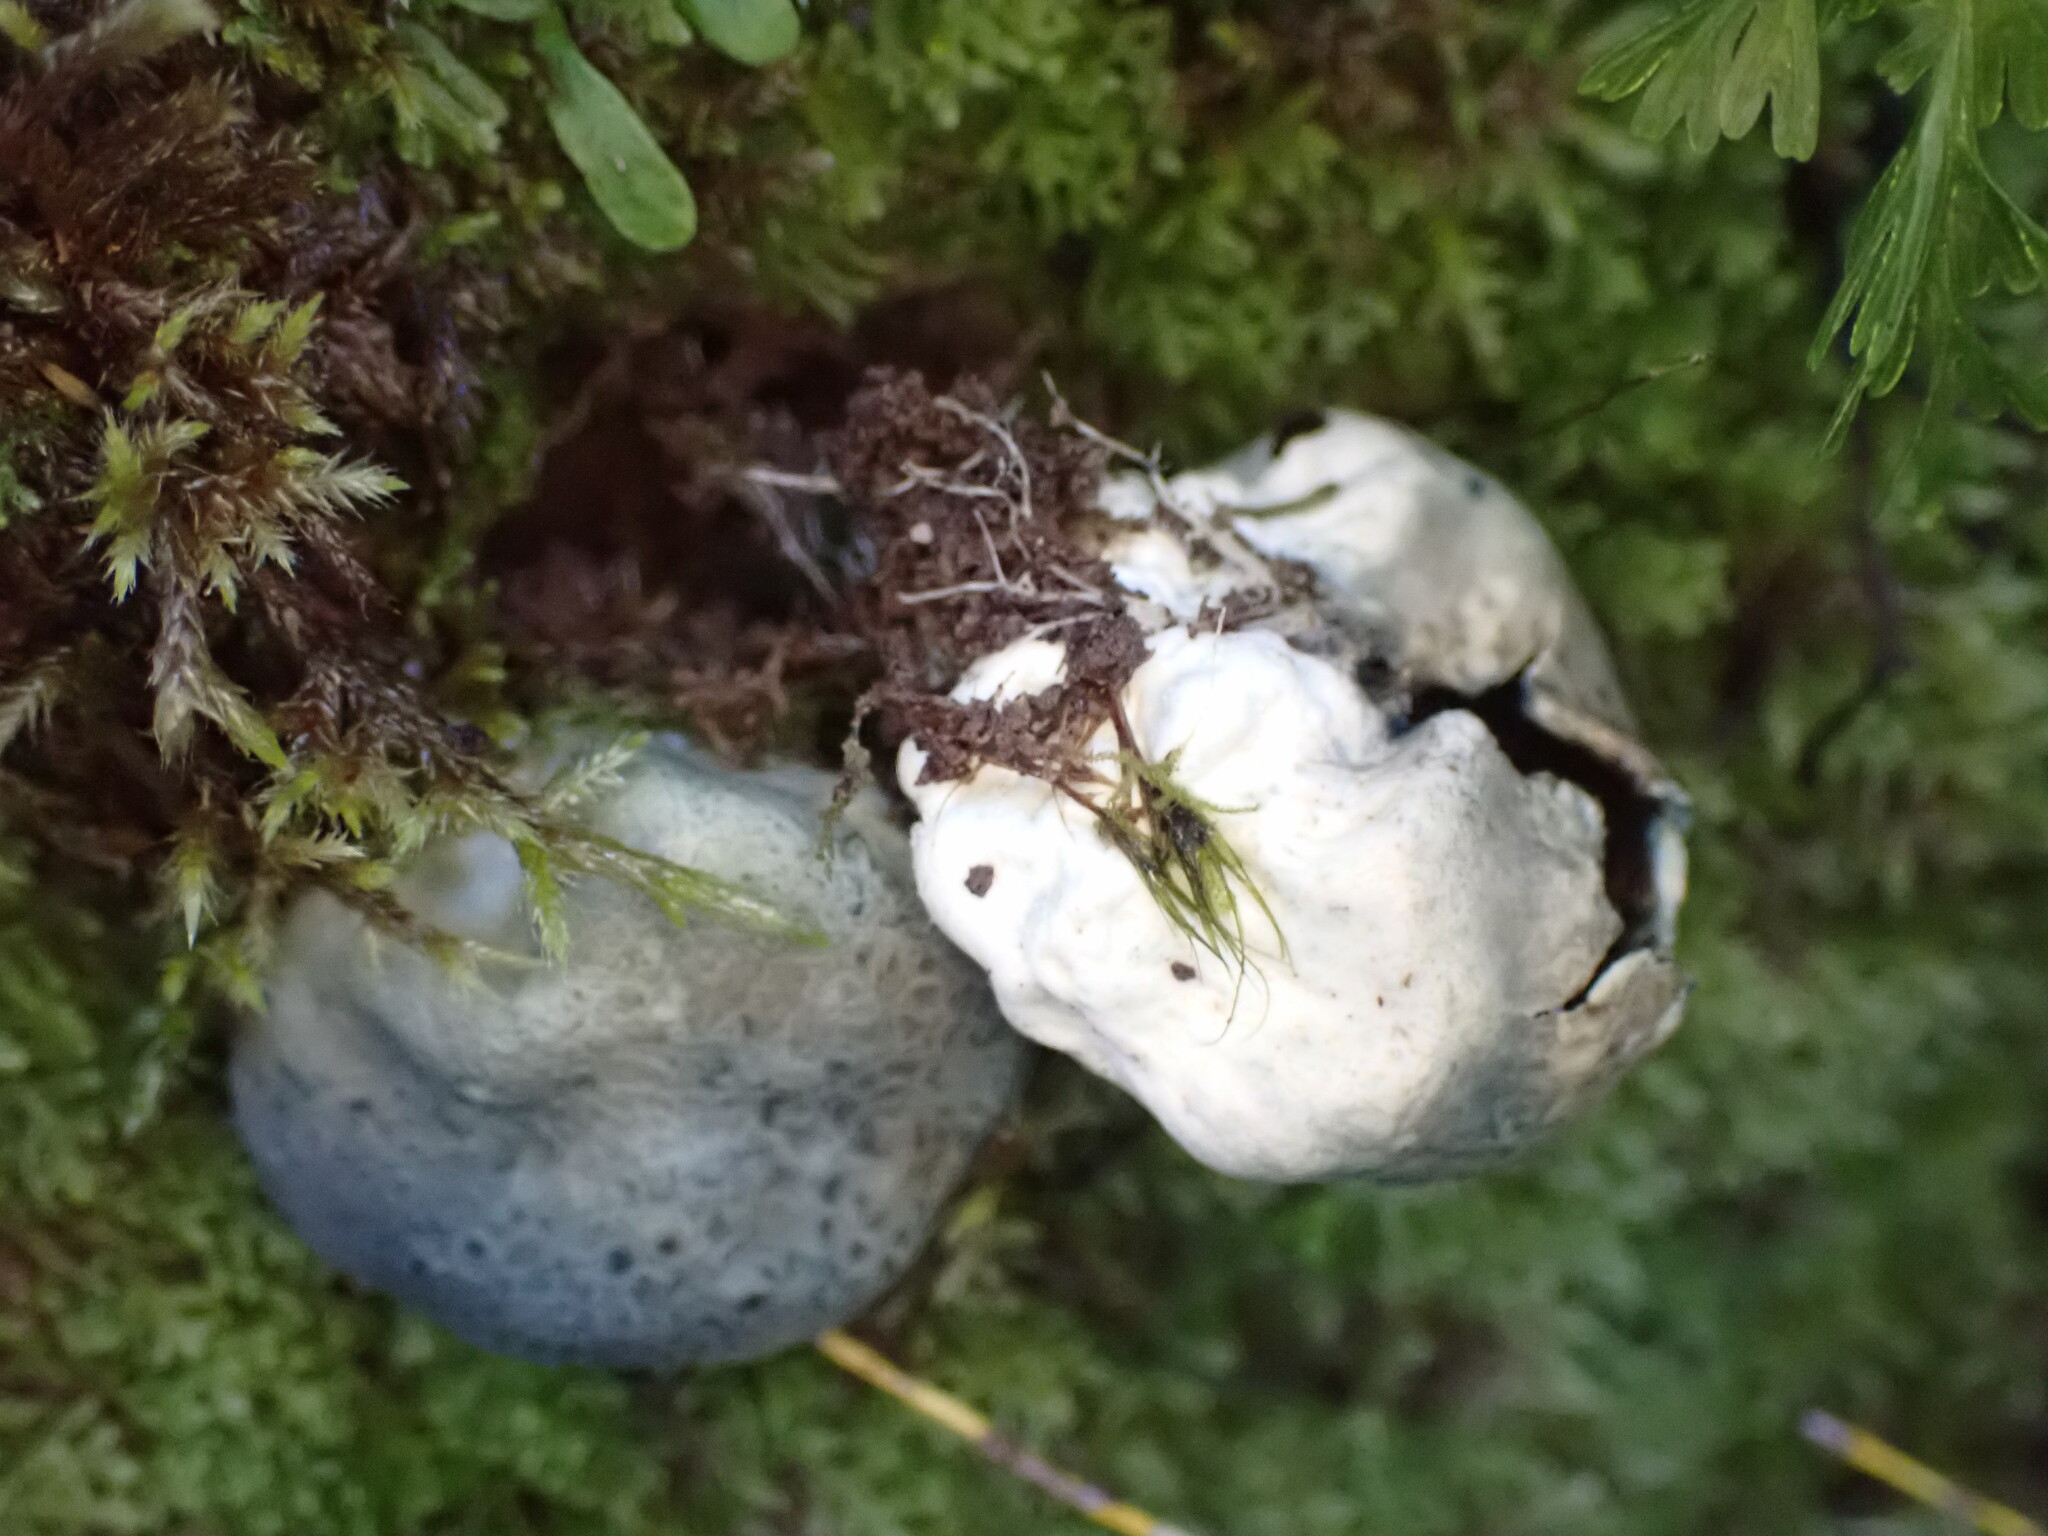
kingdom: Fungi
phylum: Basidiomycota
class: Agaricomycetes
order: Boletales
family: Boletaceae
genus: Leccinum
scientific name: Leccinum pachyderme
